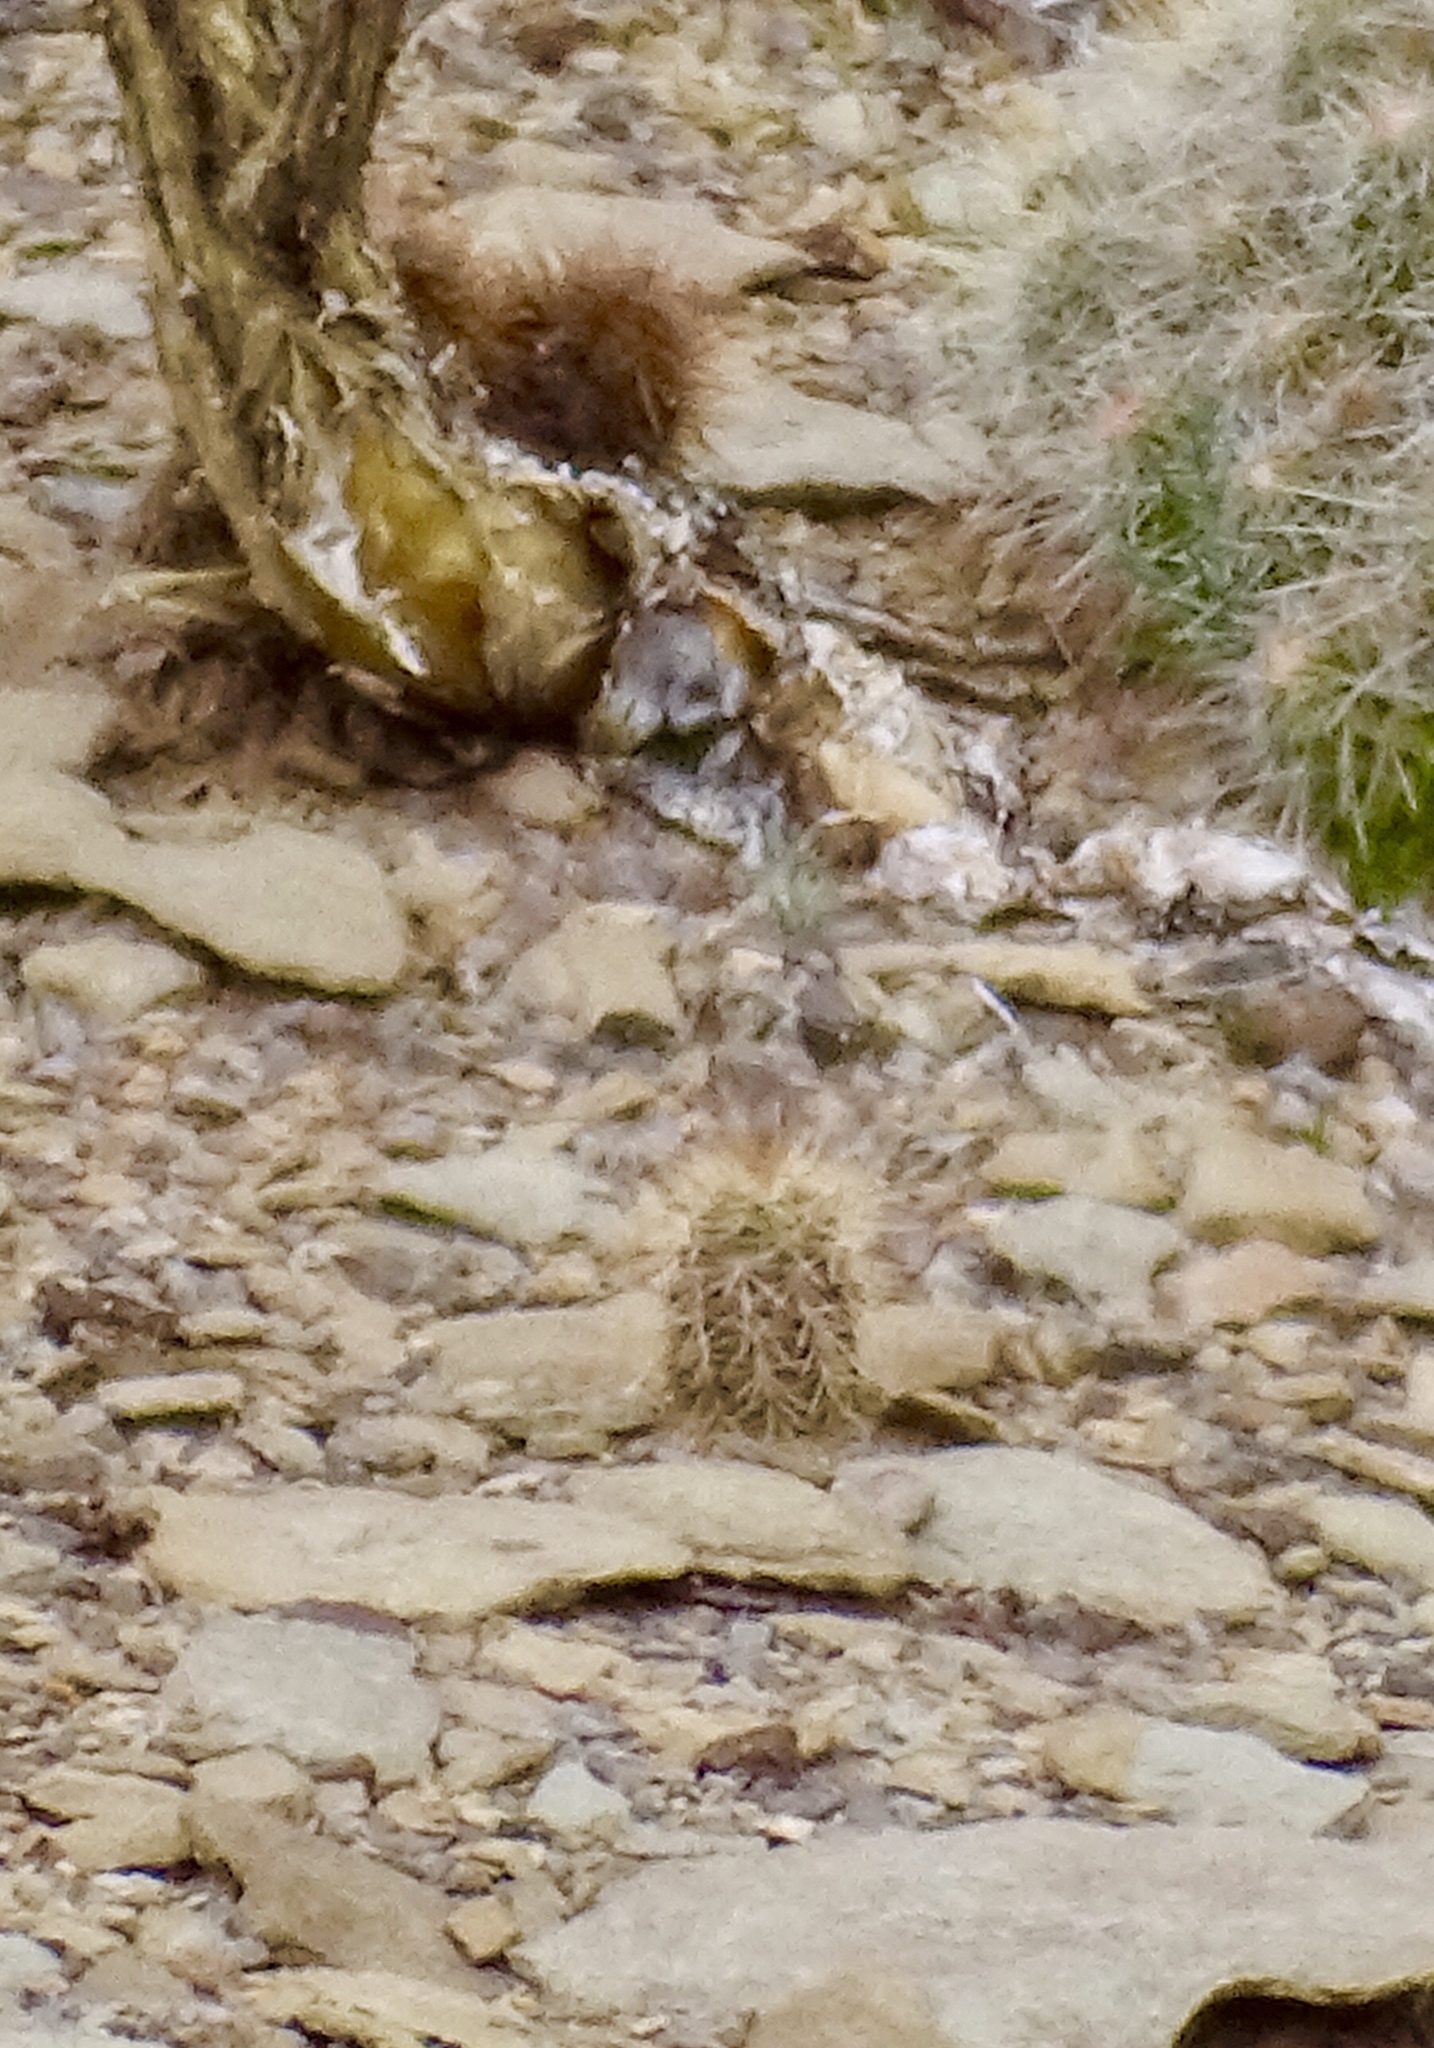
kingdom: Plantae
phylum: Tracheophyta
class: Magnoliopsida
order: Caryophyllales
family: Cactaceae
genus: Echinocereus
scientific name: Echinocereus coccineus
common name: Scarlet hedgehog cactus
